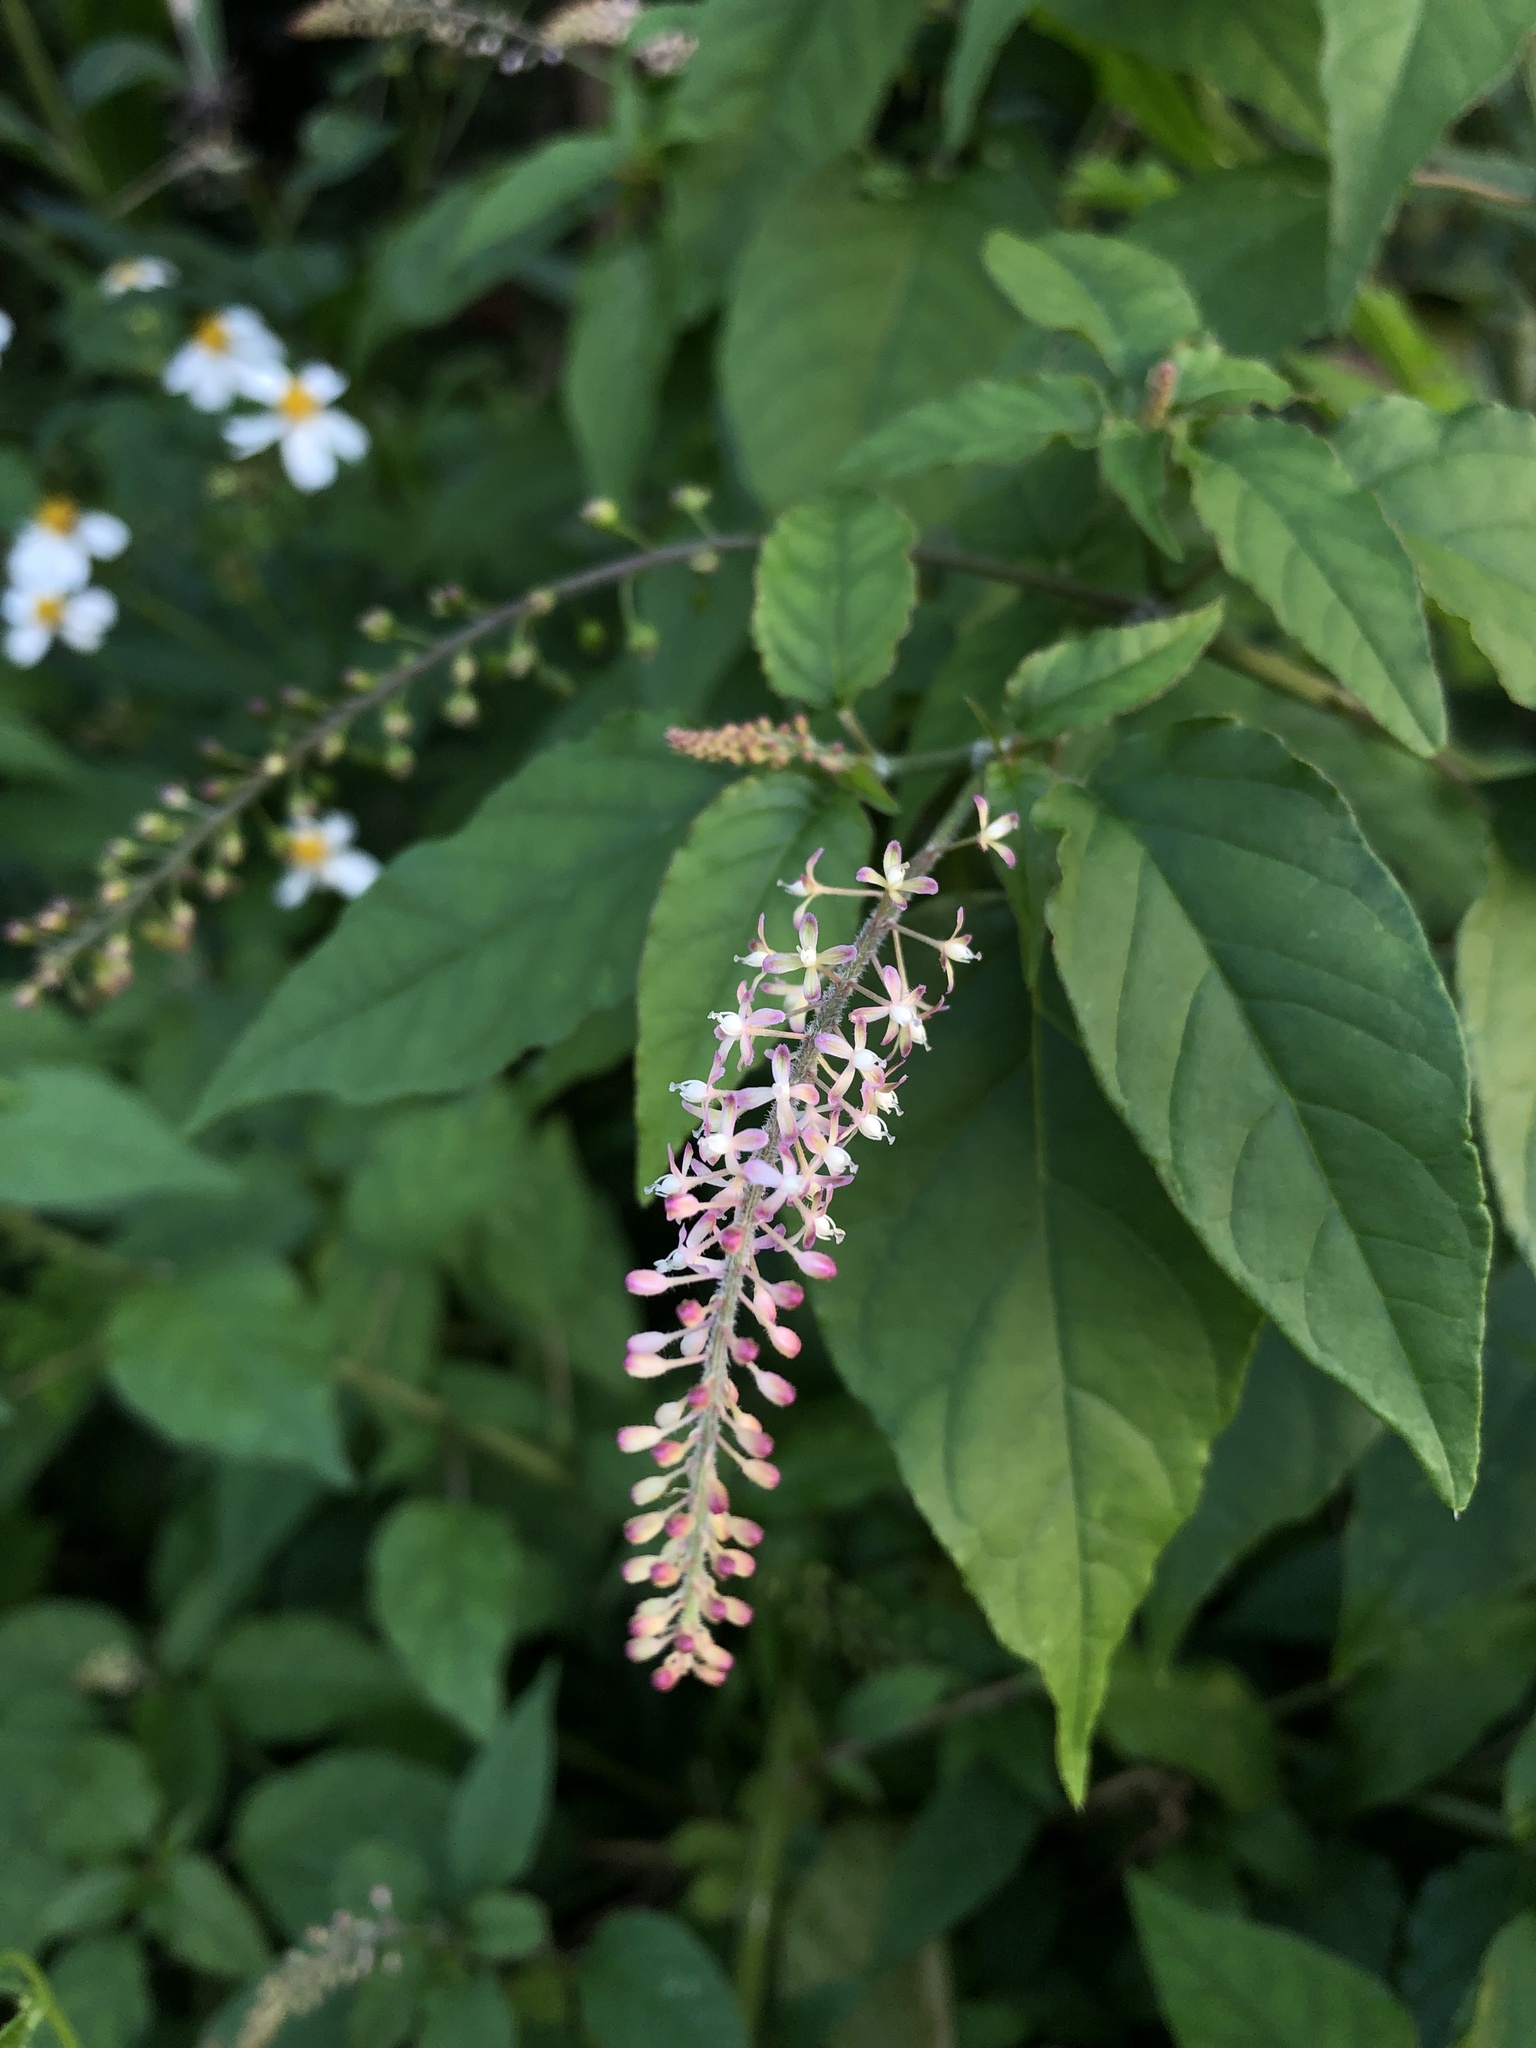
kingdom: Plantae
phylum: Tracheophyta
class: Magnoliopsida
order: Caryophyllales
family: Phytolaccaceae
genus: Rivina
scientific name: Rivina humilis
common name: Rougeplant
